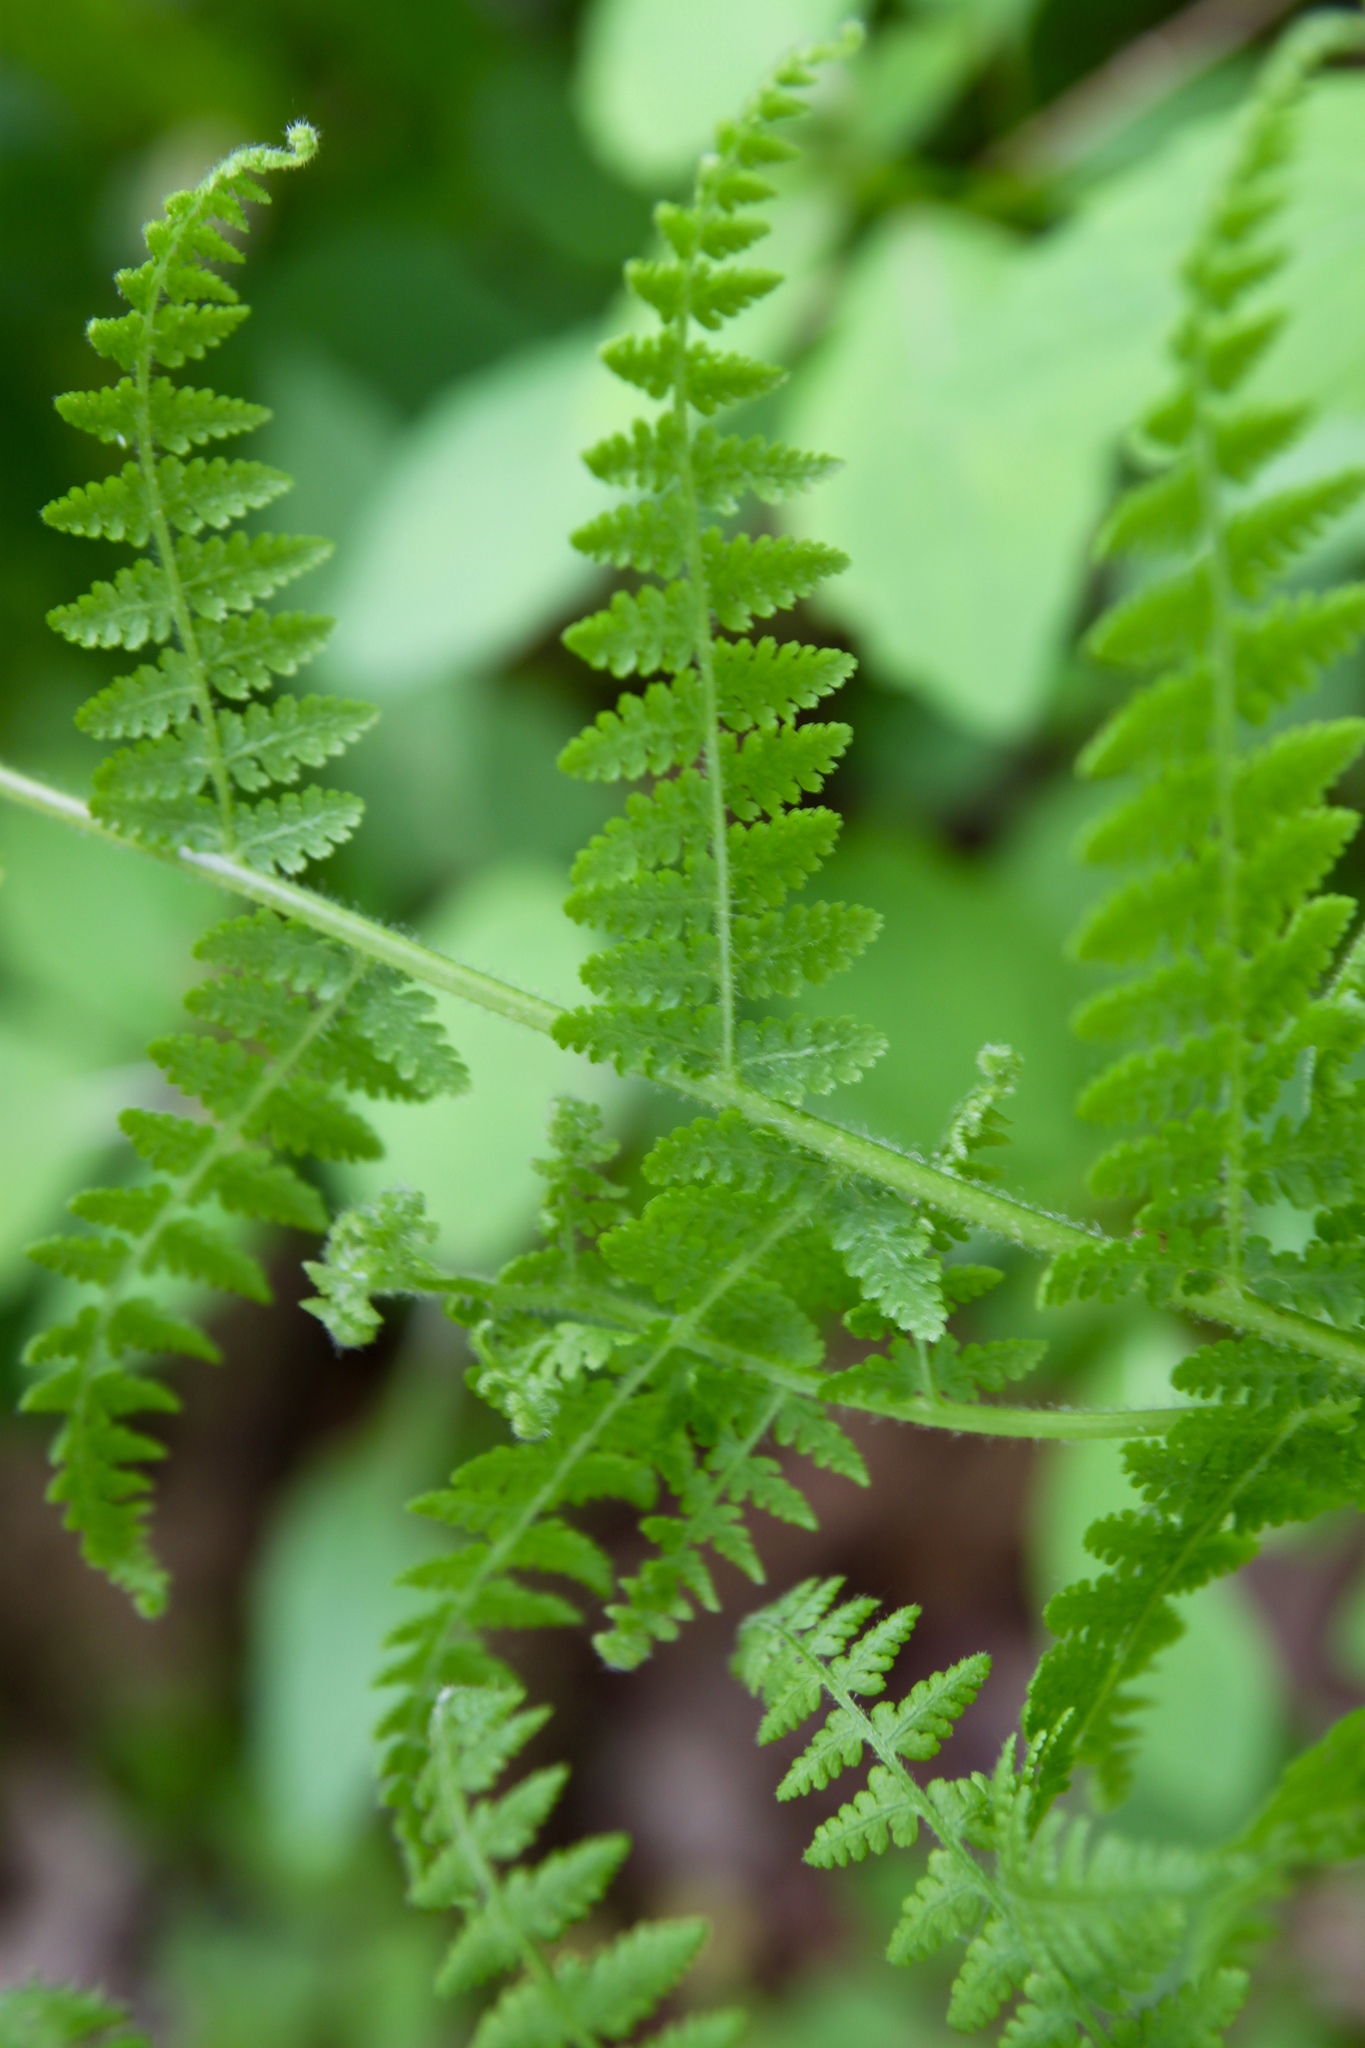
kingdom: Plantae
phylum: Tracheophyta
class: Polypodiopsida
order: Polypodiales
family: Dennstaedtiaceae
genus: Sitobolium
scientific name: Sitobolium punctilobum
